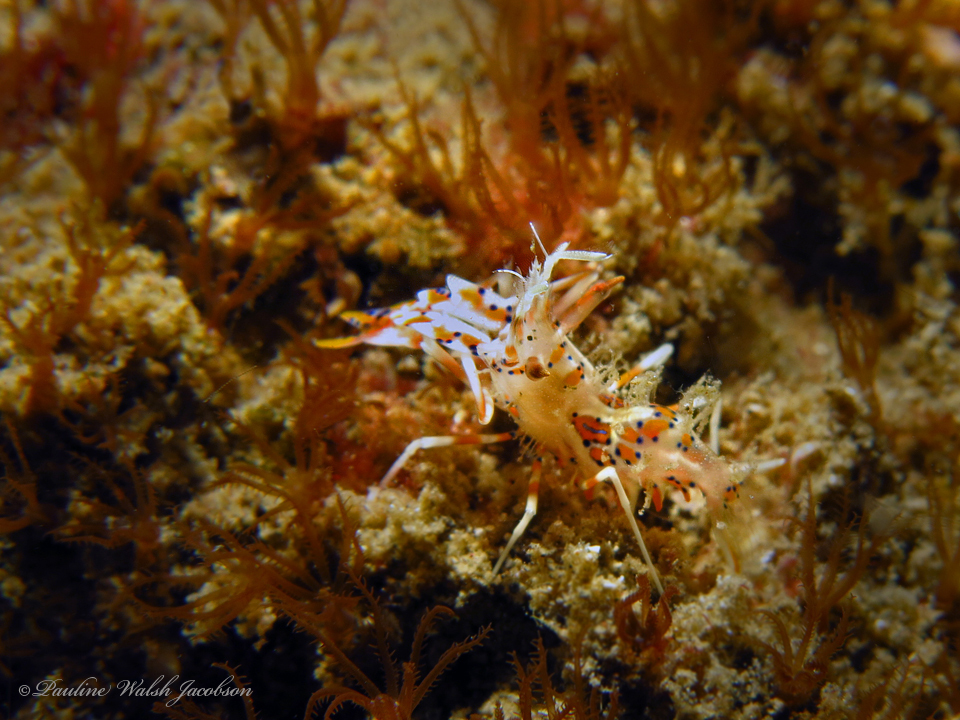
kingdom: Animalia
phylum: Arthropoda
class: Malacostraca
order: Decapoda
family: Palaemonidae
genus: Phyllognathia
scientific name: Phyllognathia ceratophthalma
